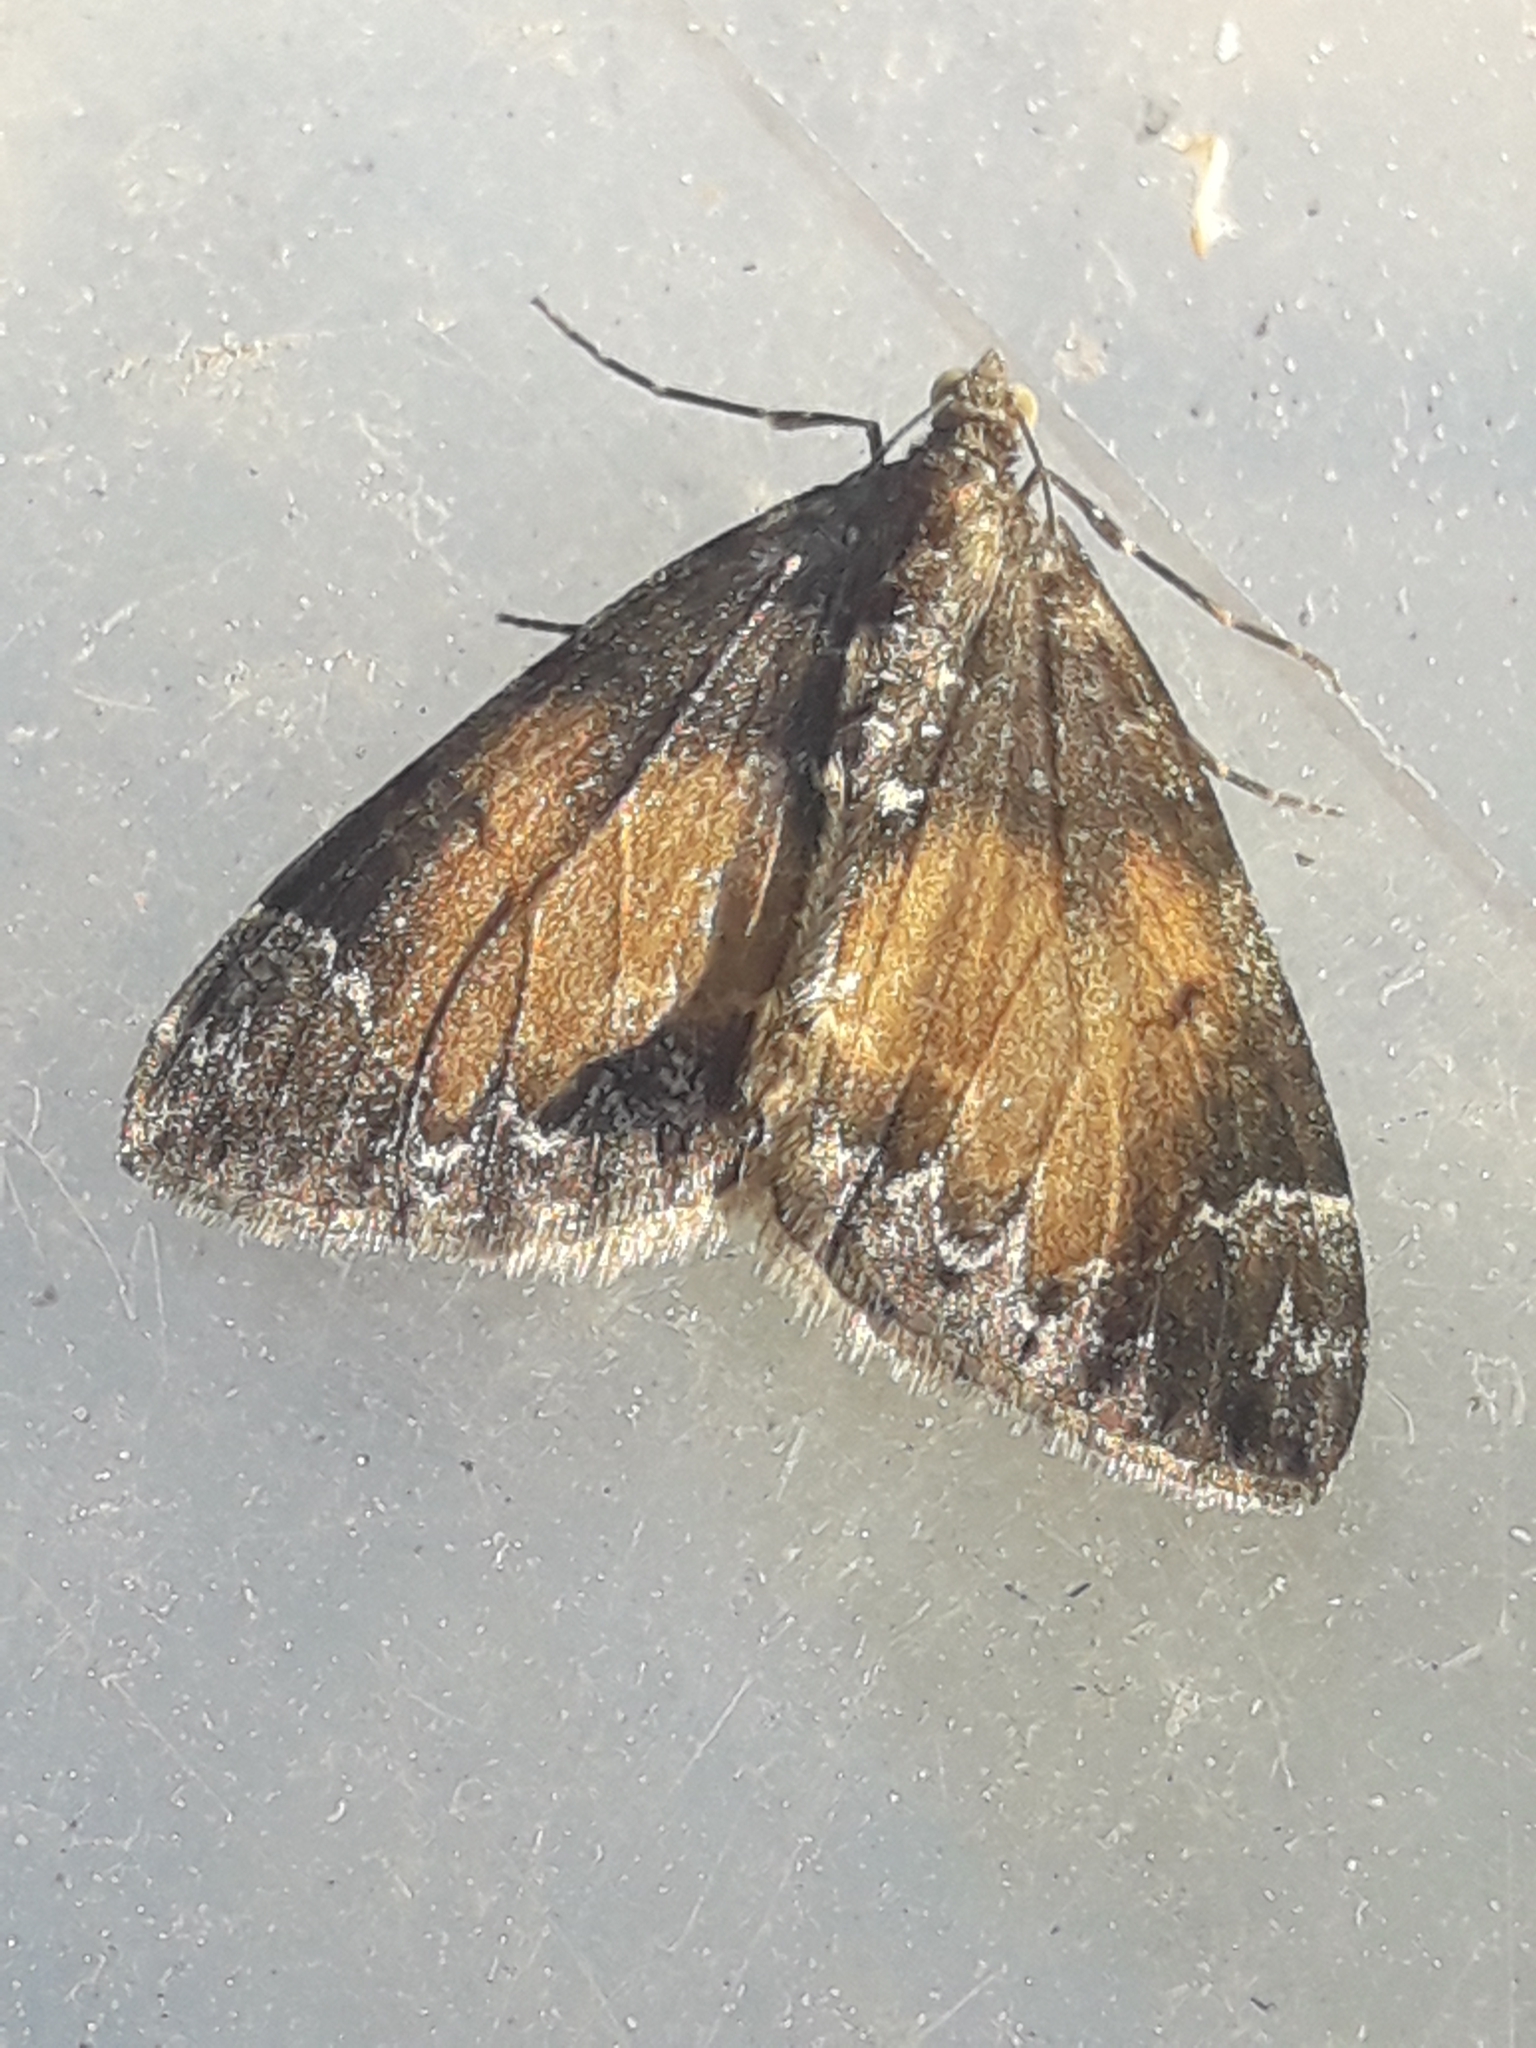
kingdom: Animalia
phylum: Arthropoda
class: Insecta
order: Lepidoptera
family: Geometridae
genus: Dysstroma
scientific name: Dysstroma truncata
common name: Common marbled carpet
